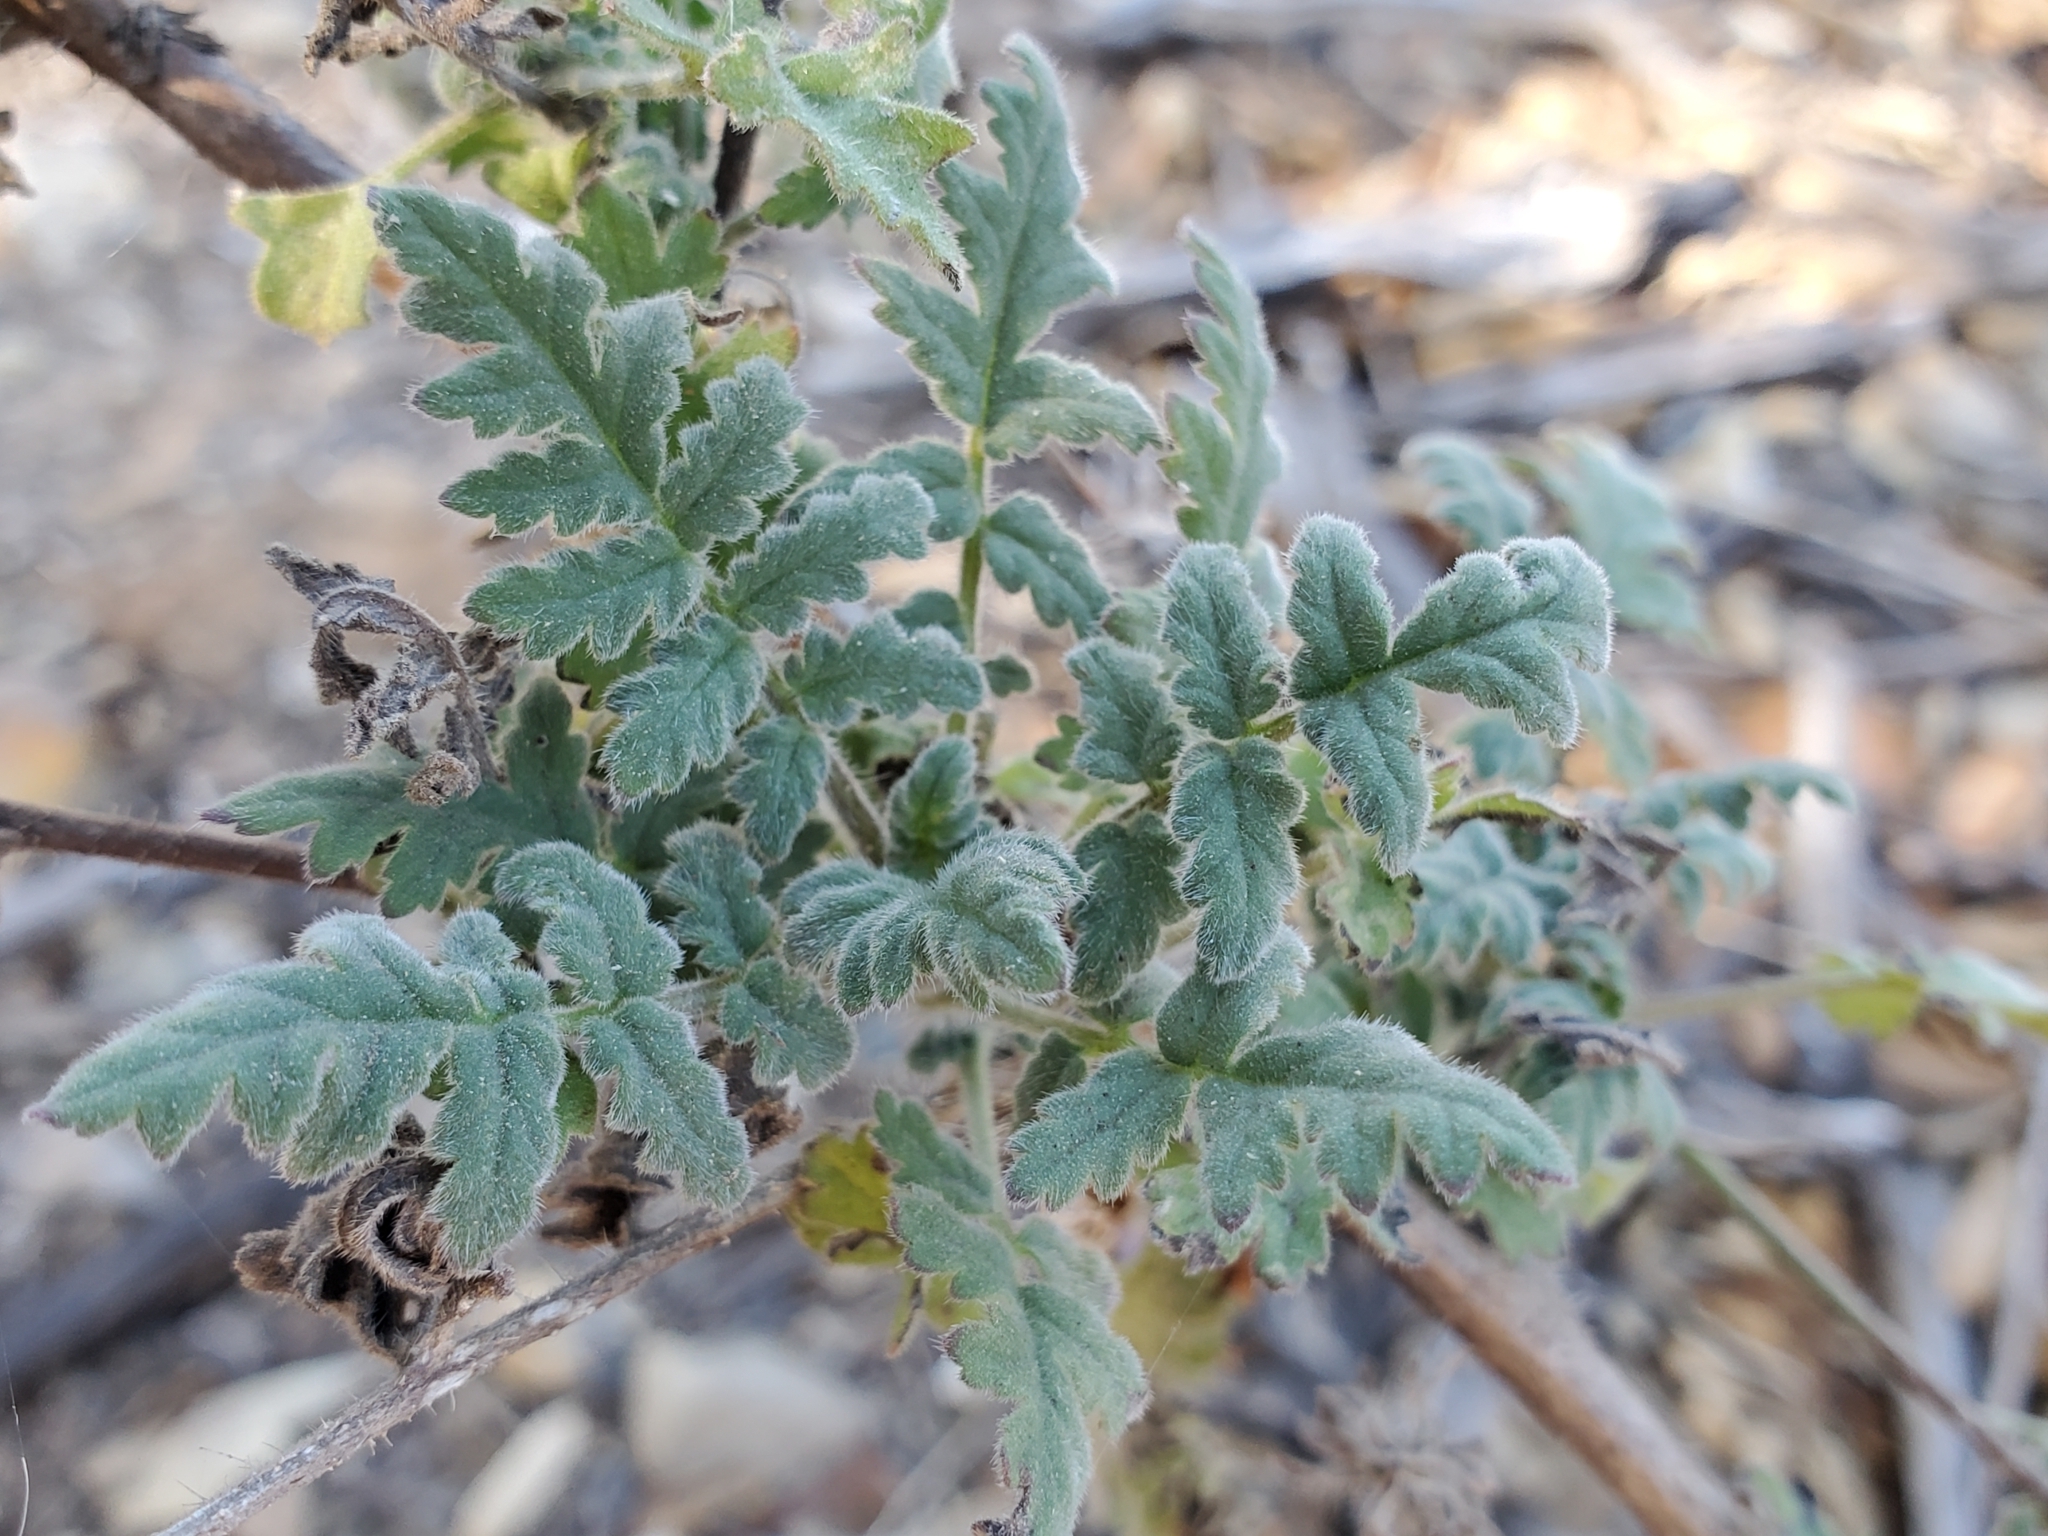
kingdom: Plantae
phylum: Tracheophyta
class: Magnoliopsida
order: Boraginales
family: Hydrophyllaceae
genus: Phacelia
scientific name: Phacelia ramosissima
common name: Branching phacelia
